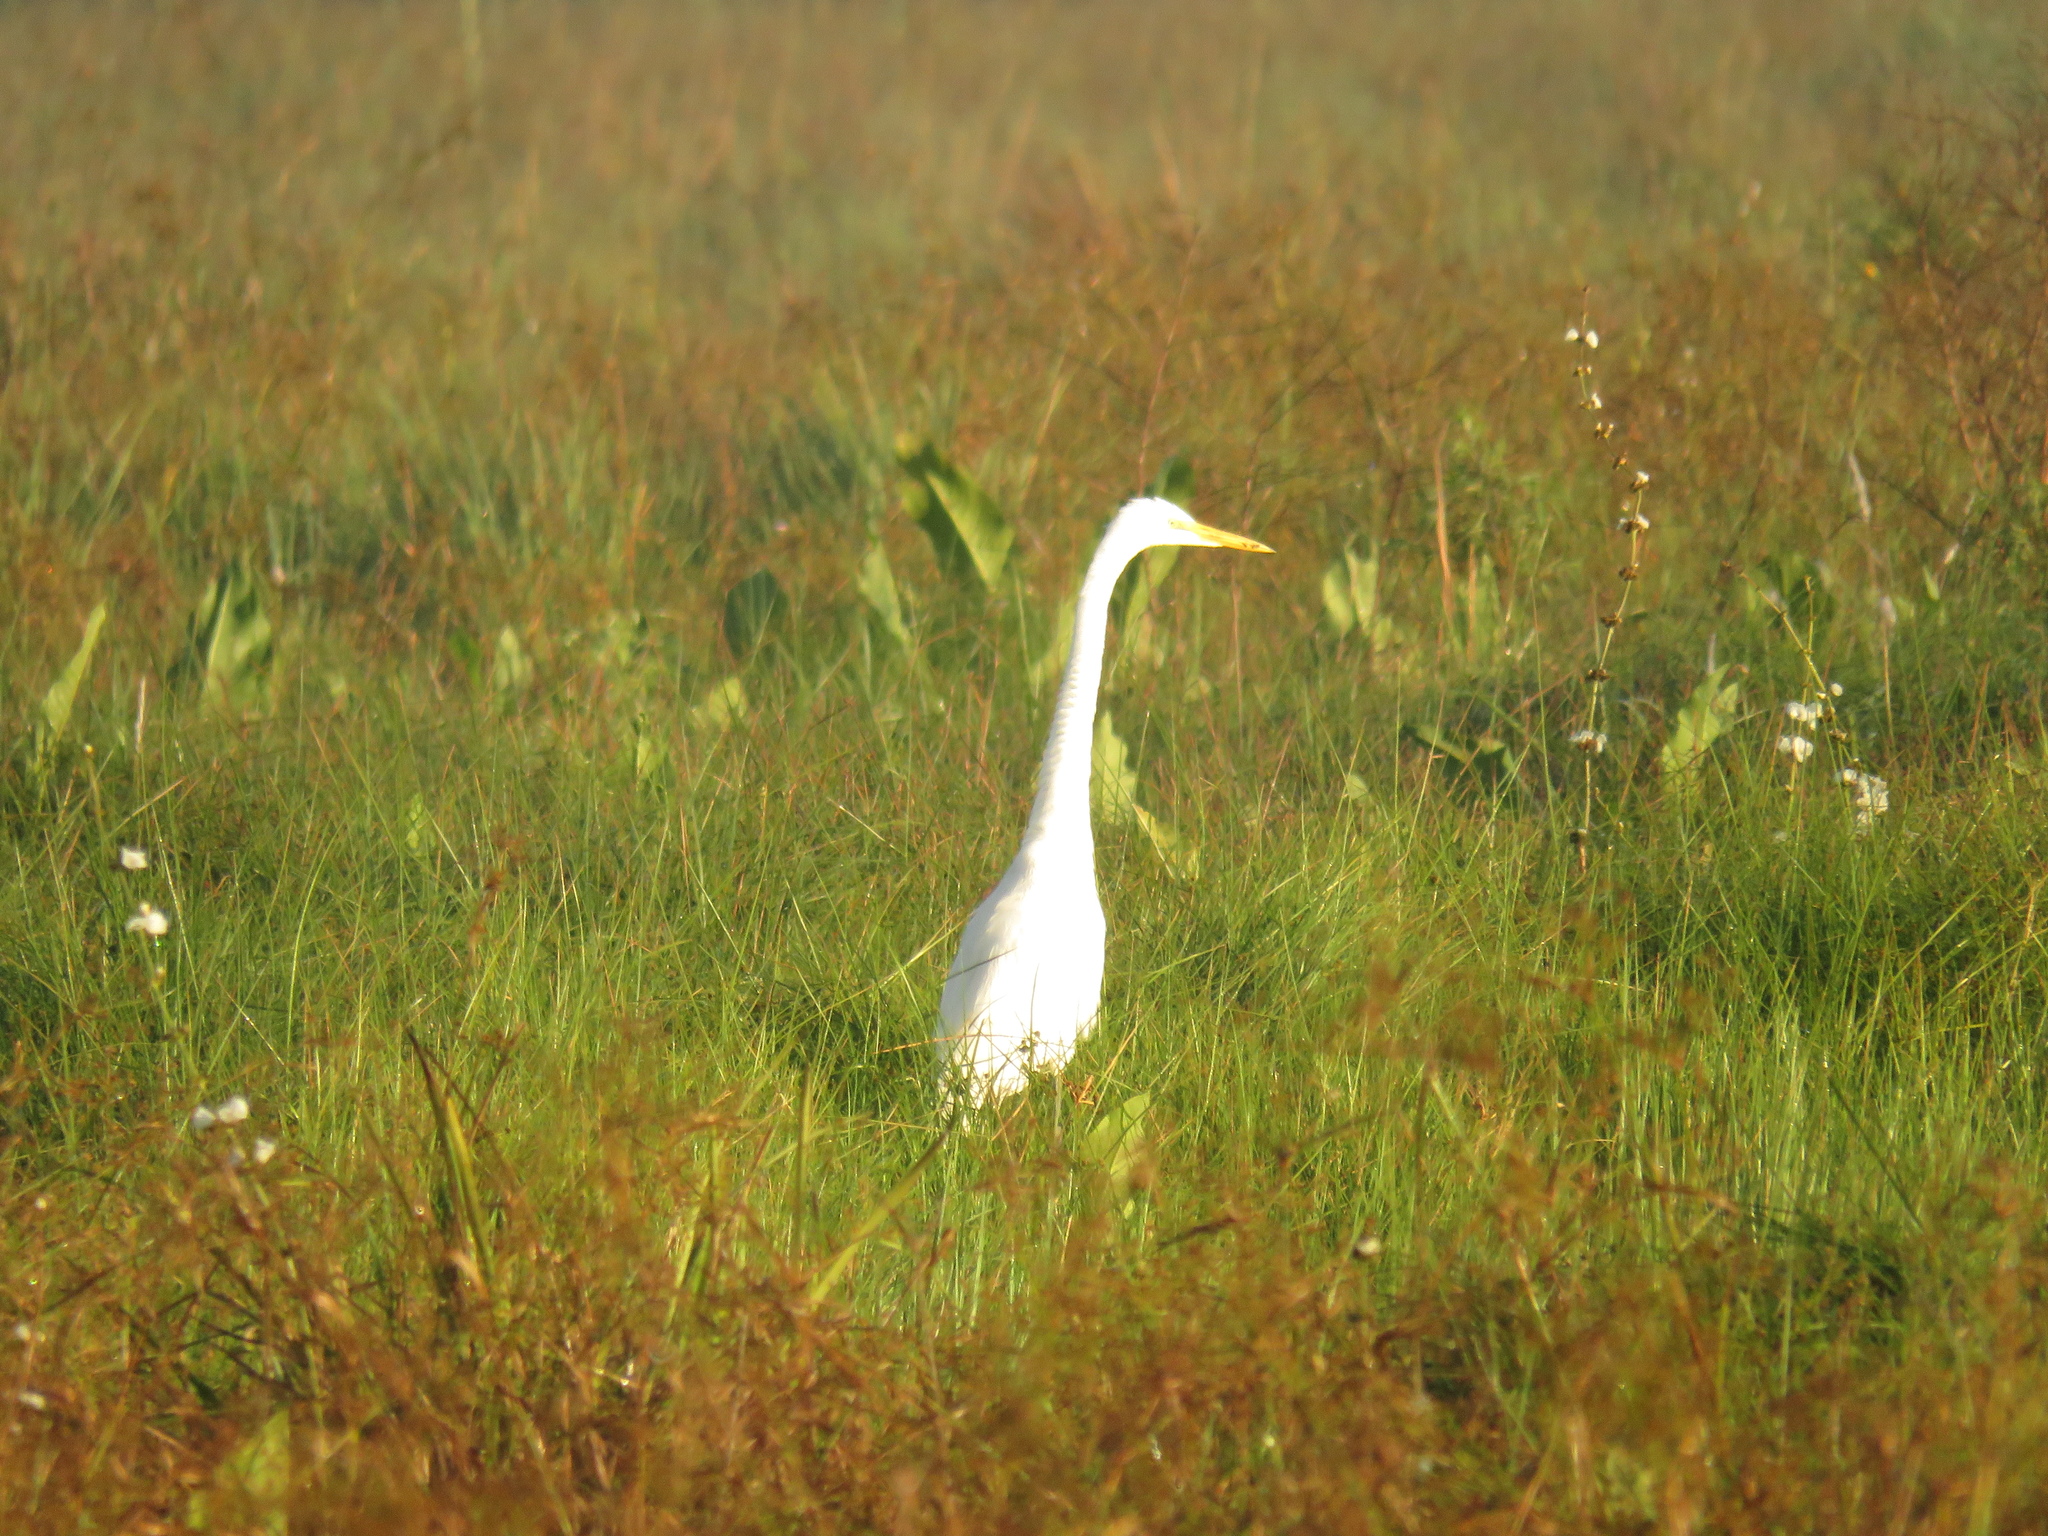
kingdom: Animalia
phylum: Chordata
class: Aves
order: Pelecaniformes
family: Ardeidae
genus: Ardea
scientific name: Ardea alba
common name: Great egret
